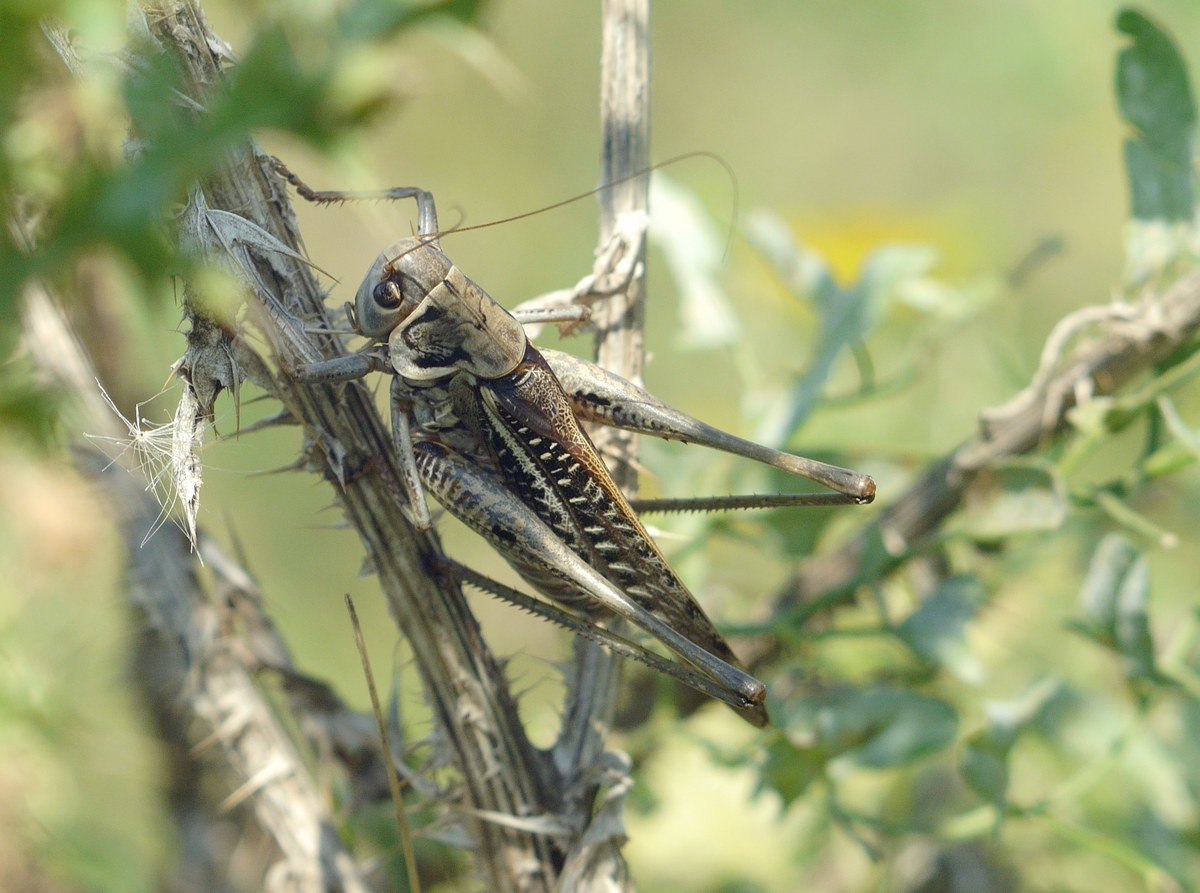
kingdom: Animalia
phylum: Arthropoda
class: Insecta
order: Orthoptera
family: Tettigoniidae
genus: Decticus
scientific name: Decticus albifrons
